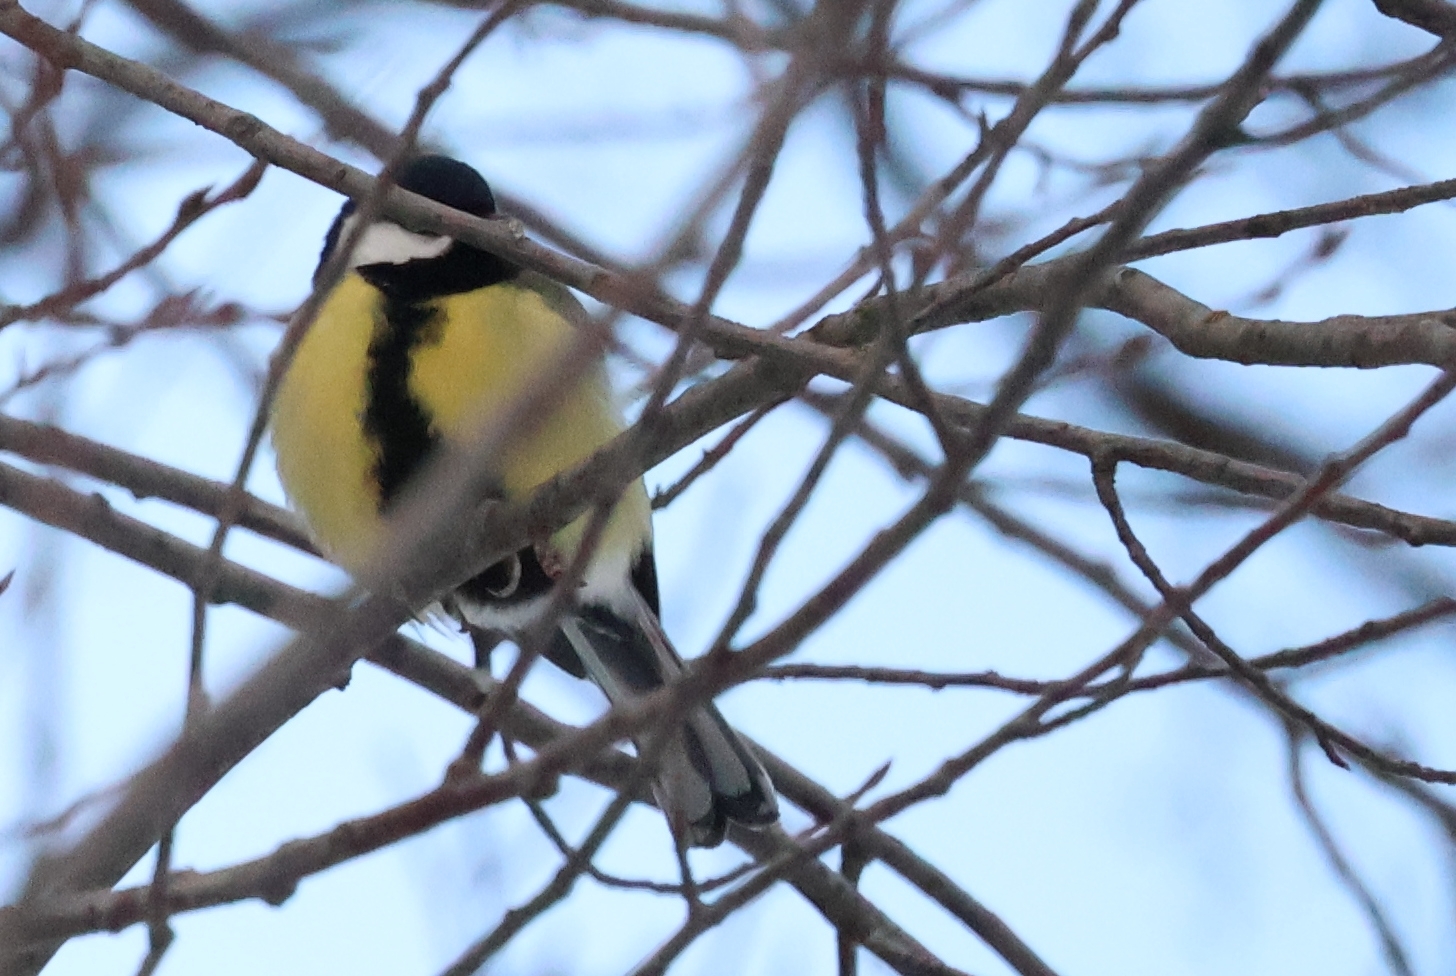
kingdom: Animalia
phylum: Chordata
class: Aves
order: Passeriformes
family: Paridae
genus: Parus
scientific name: Parus major
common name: Great tit
